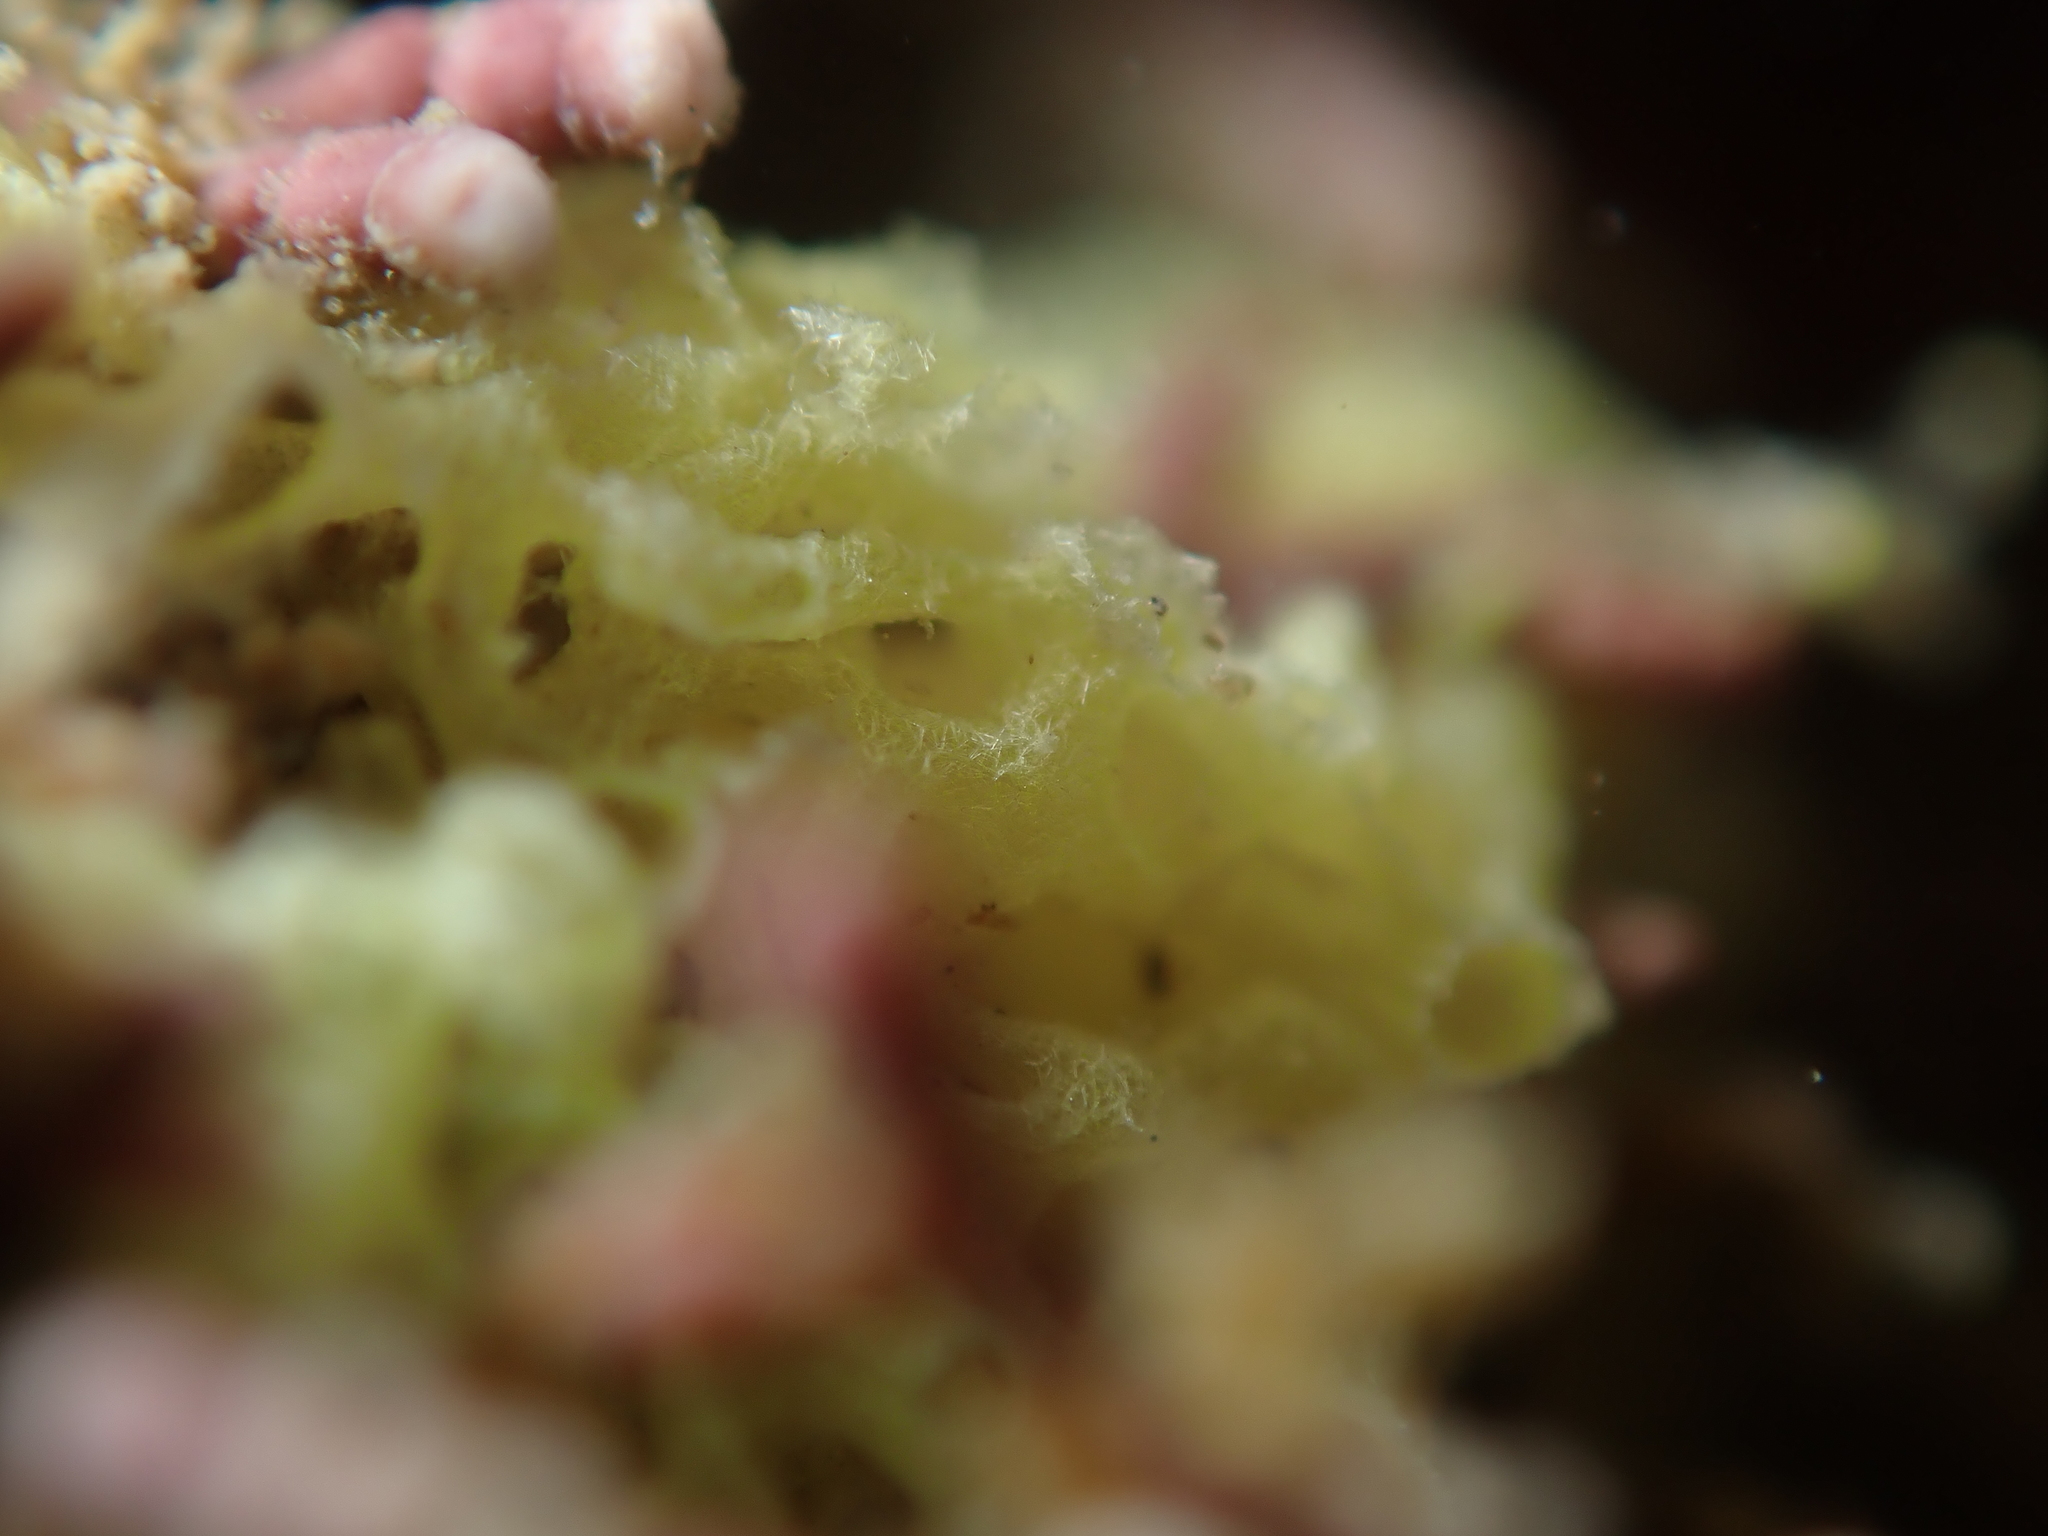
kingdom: Animalia
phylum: Porifera
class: Calcarea
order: Clathrinida
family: Clathrinidae
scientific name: Clathrinidae
